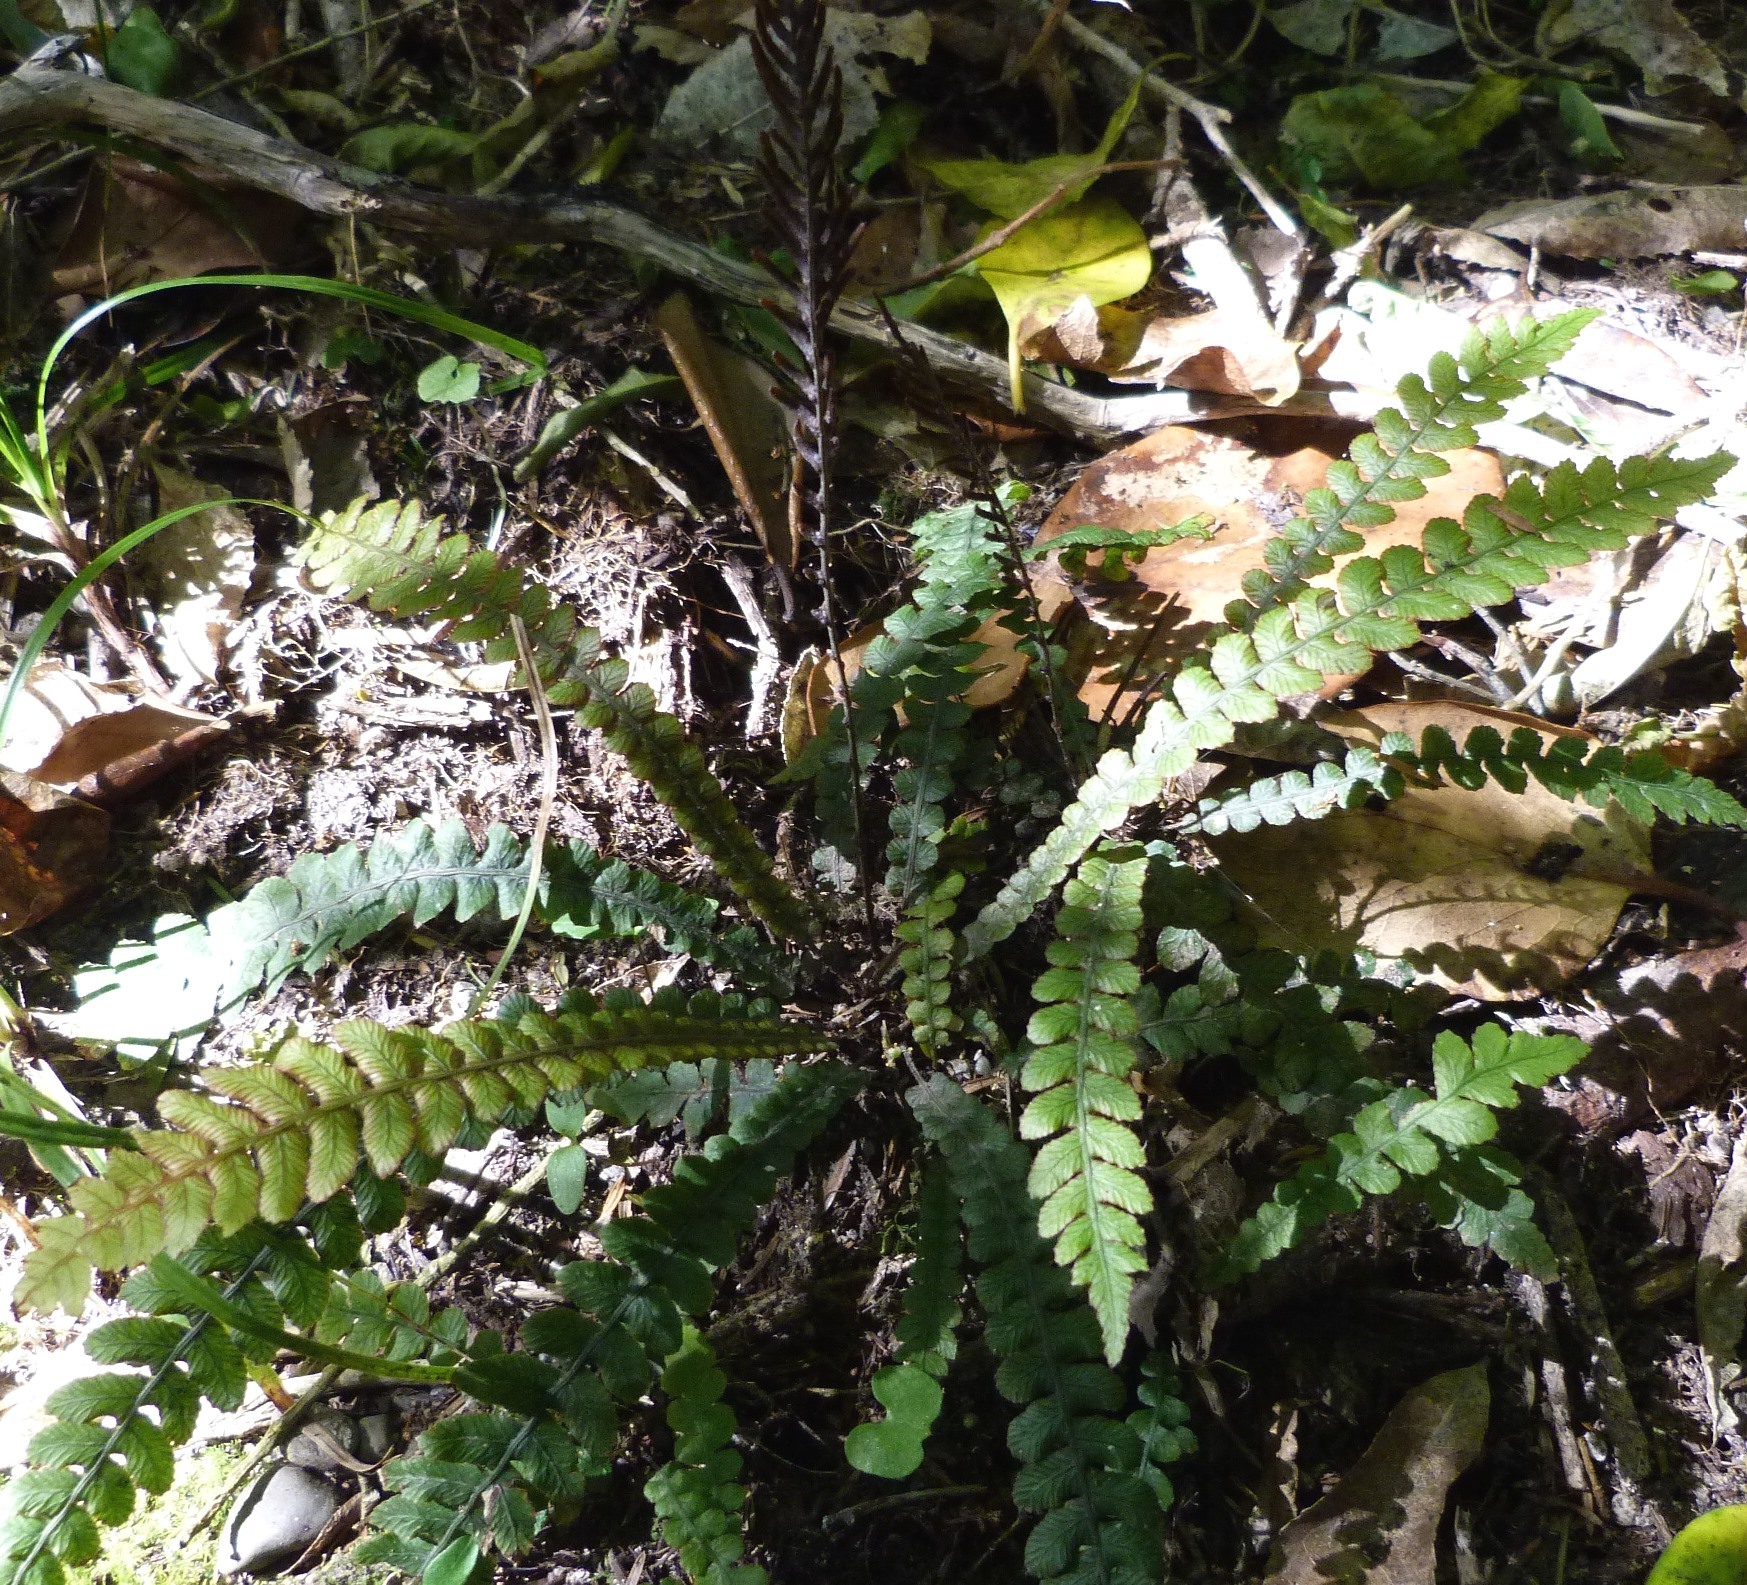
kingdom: Plantae
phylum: Tracheophyta
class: Polypodiopsida
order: Polypodiales
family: Blechnaceae
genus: Austroblechnum
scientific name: Austroblechnum membranaceum
